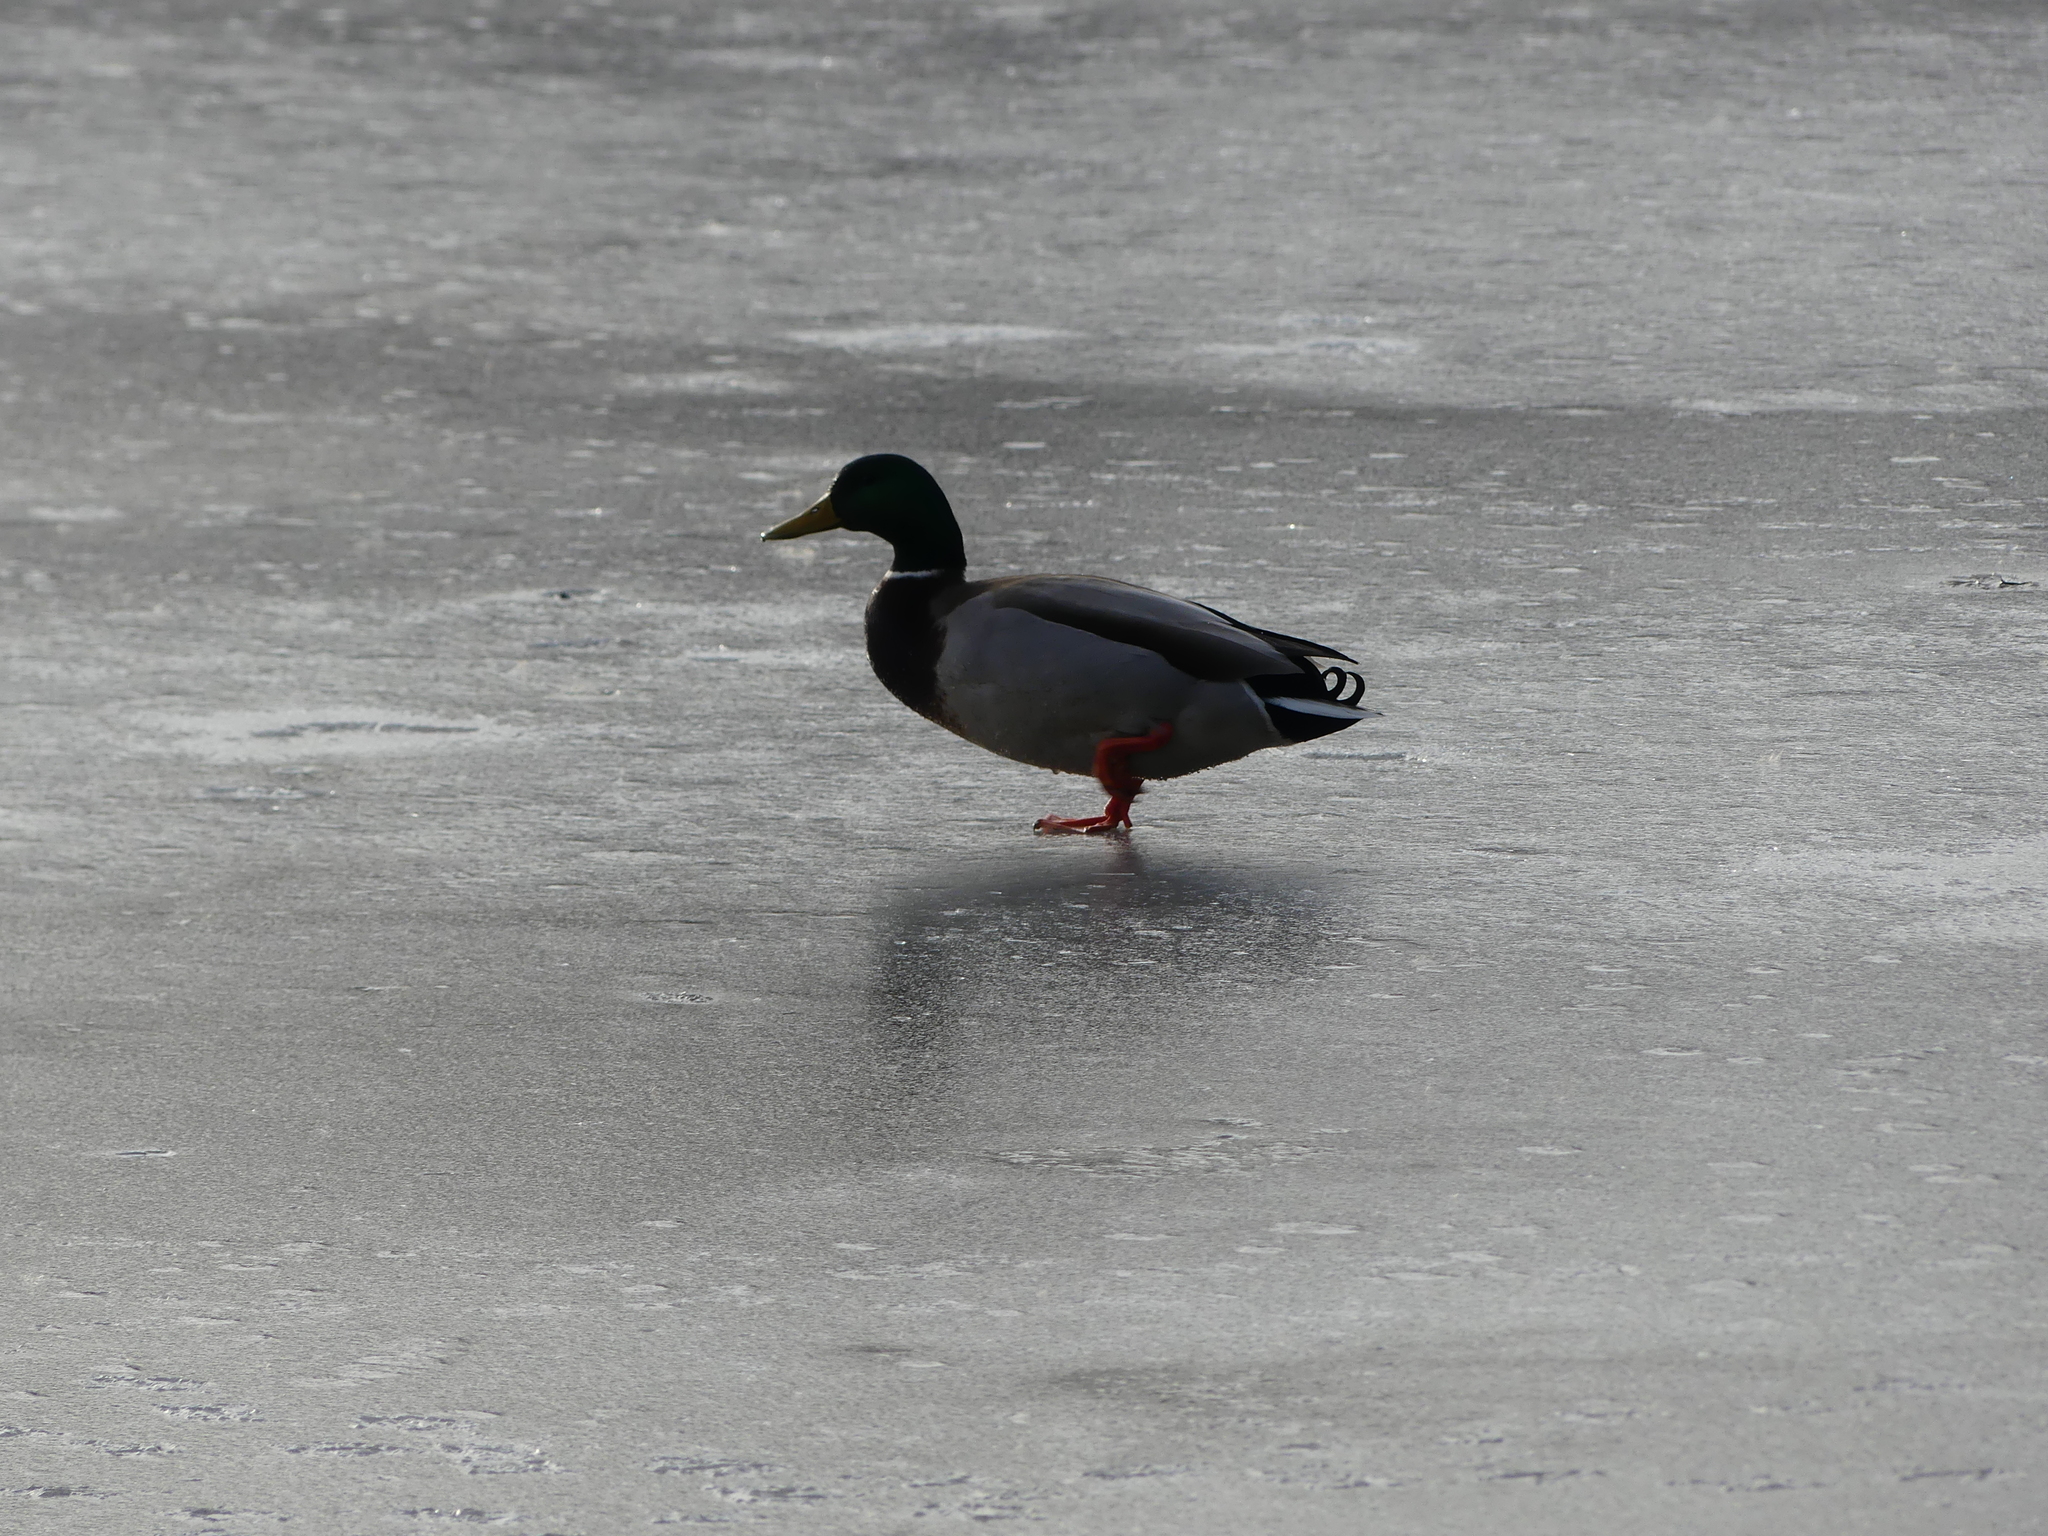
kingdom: Animalia
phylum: Chordata
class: Aves
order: Anseriformes
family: Anatidae
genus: Anas
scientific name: Anas platyrhynchos
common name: Mallard
